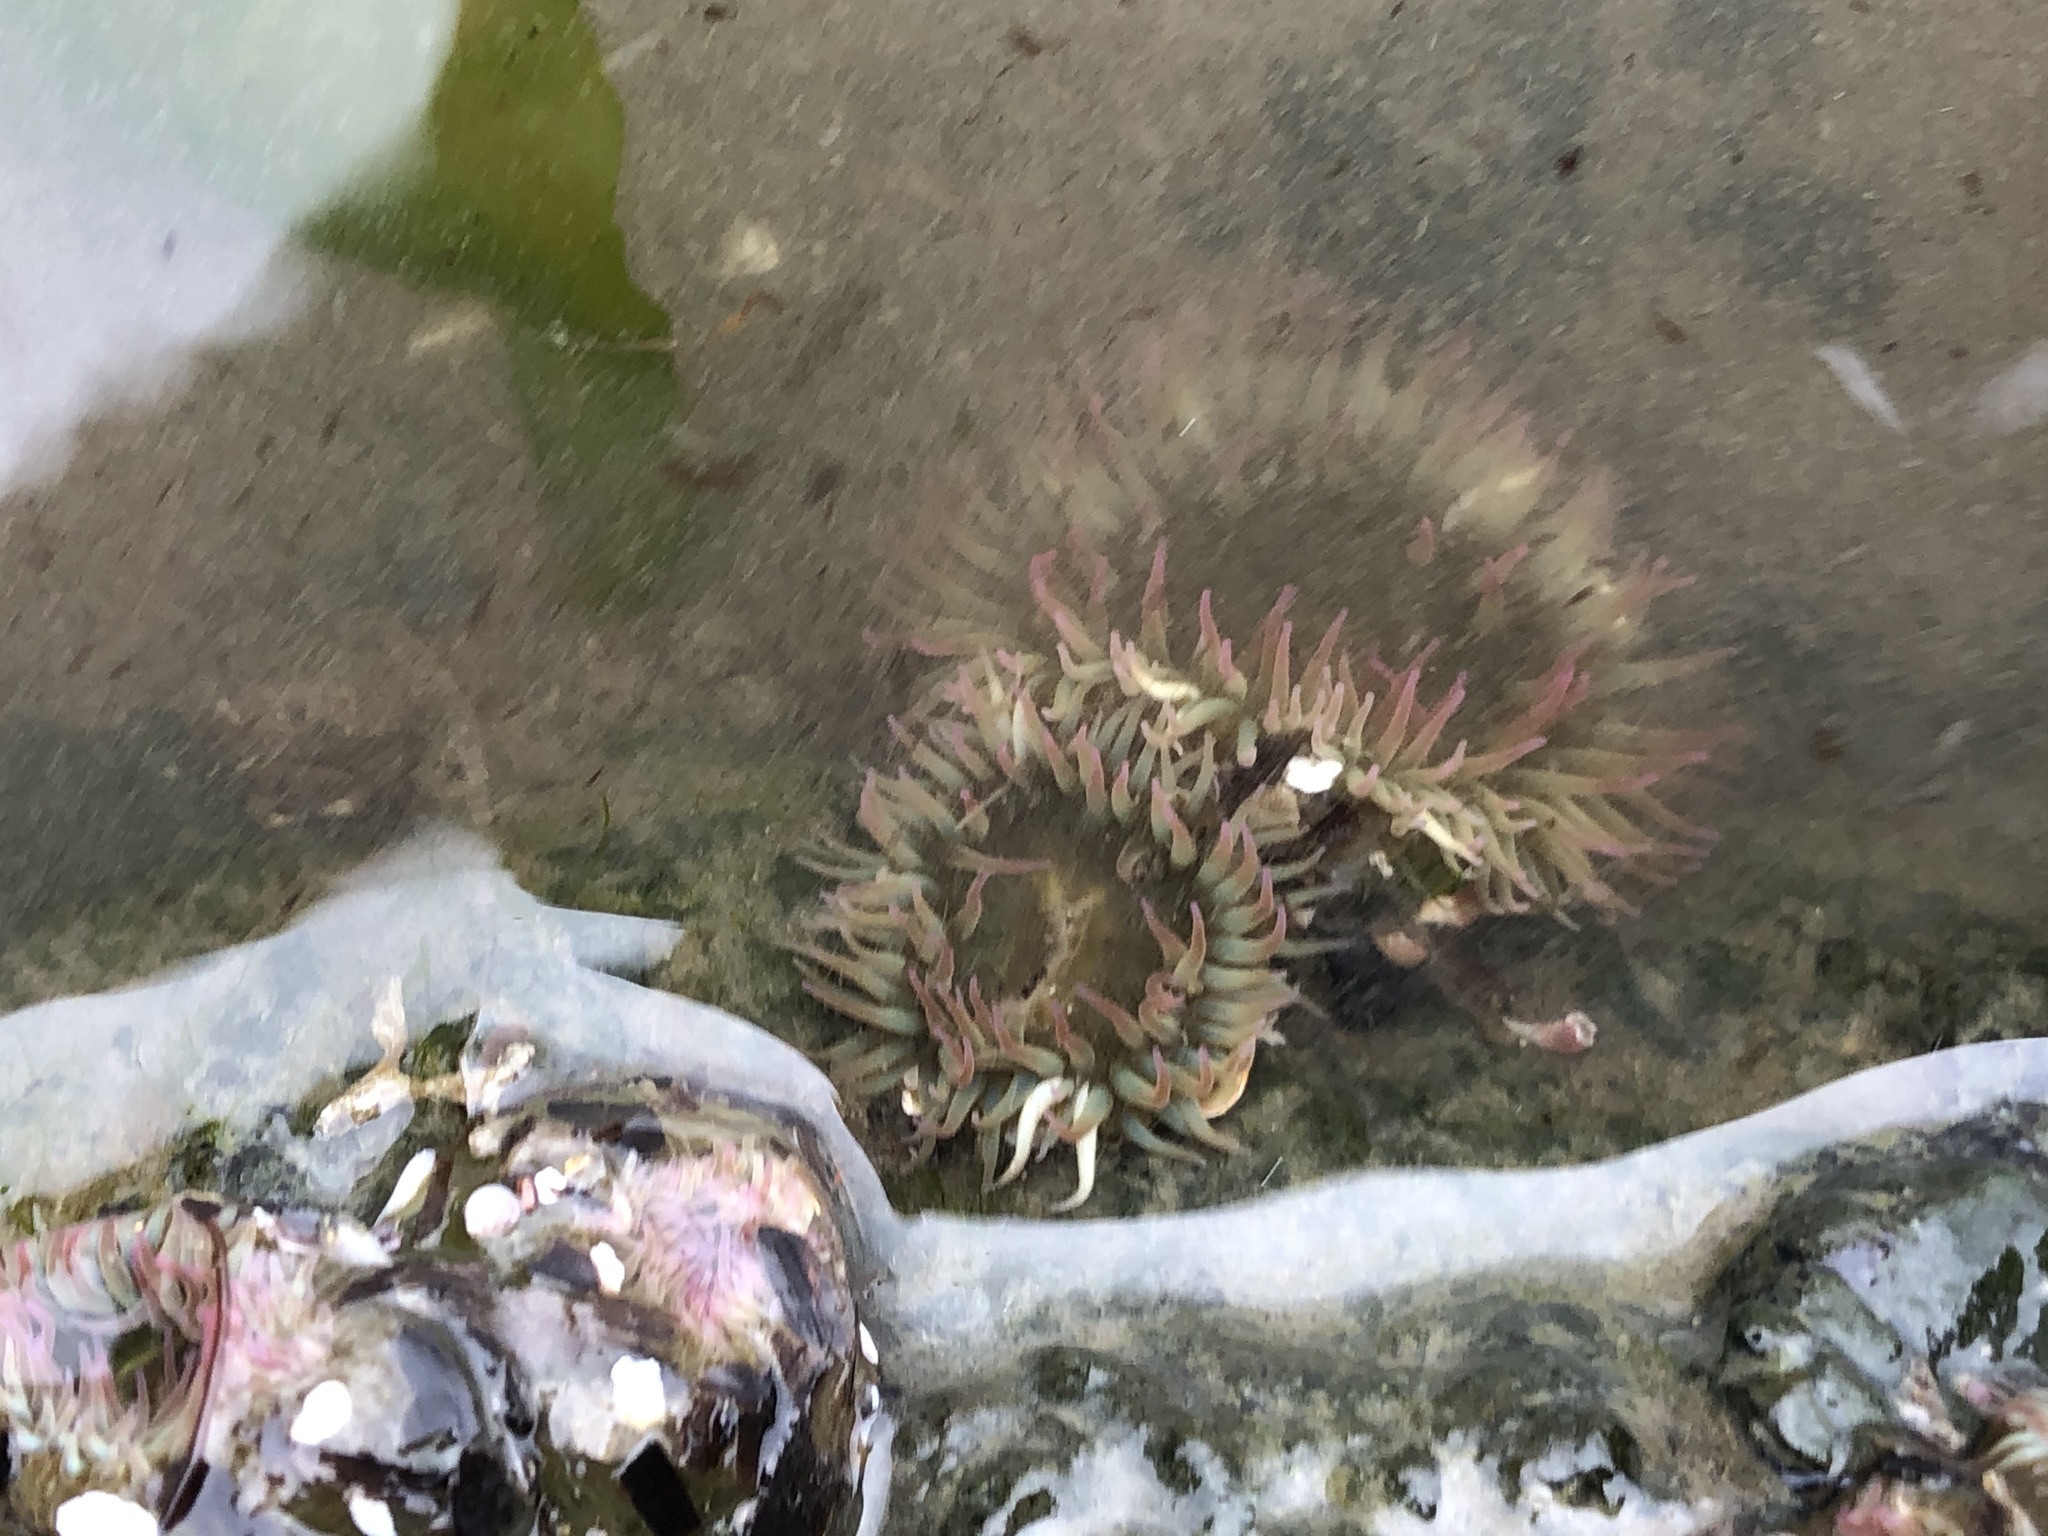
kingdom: Animalia
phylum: Cnidaria
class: Anthozoa
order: Actiniaria
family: Actiniidae
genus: Anthopleura
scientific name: Anthopleura elegantissima
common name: Clonal anemone
